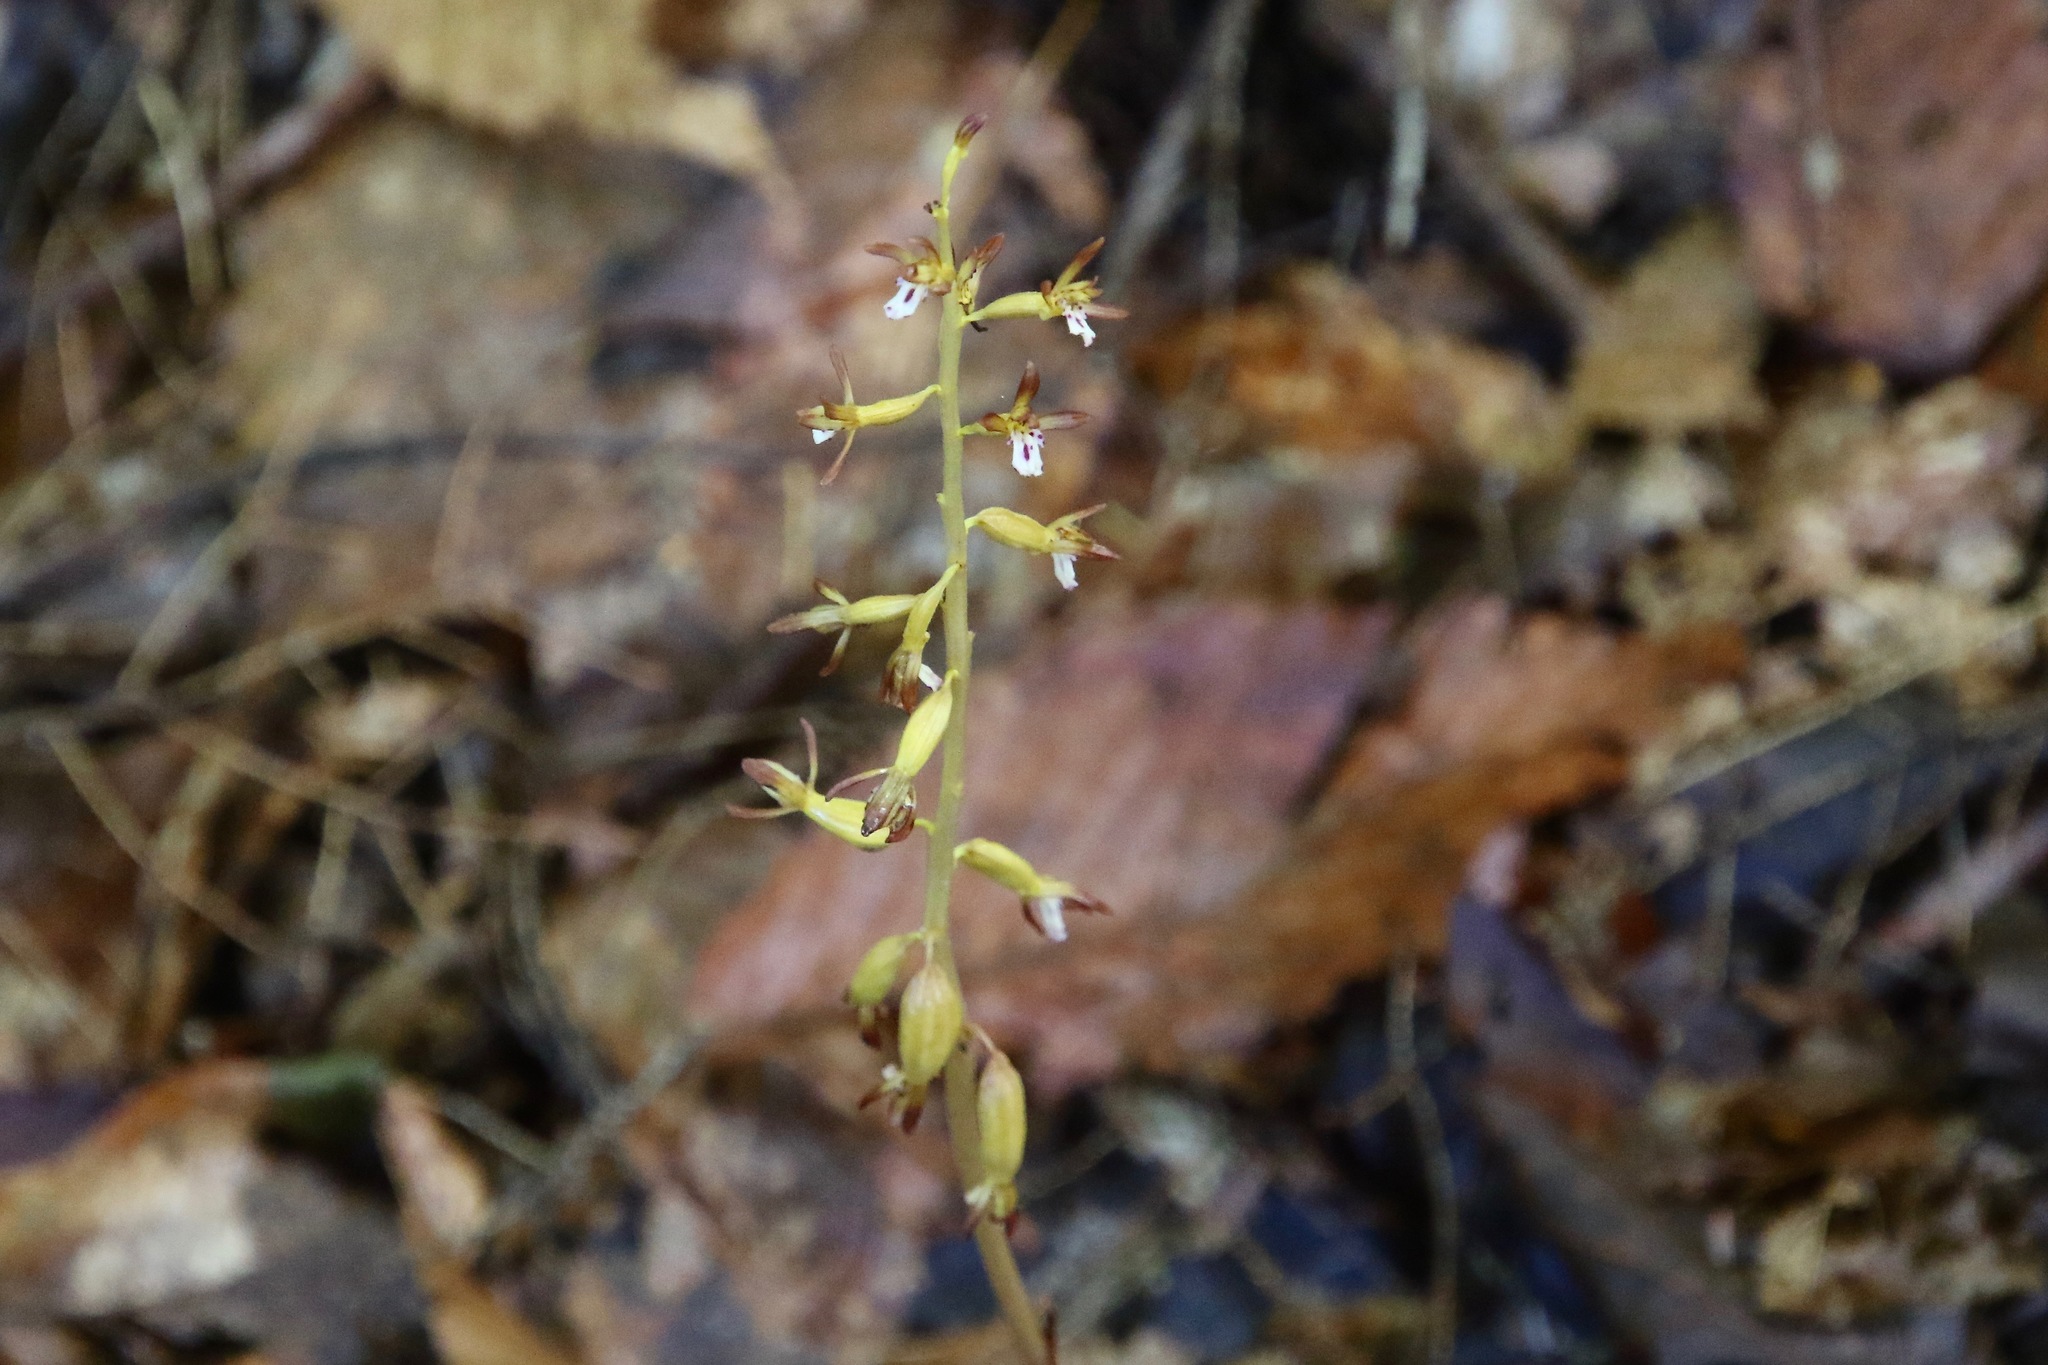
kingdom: Plantae
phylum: Tracheophyta
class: Liliopsida
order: Asparagales
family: Orchidaceae
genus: Corallorhiza
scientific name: Corallorhiza maculata
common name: Spotted coralroot
